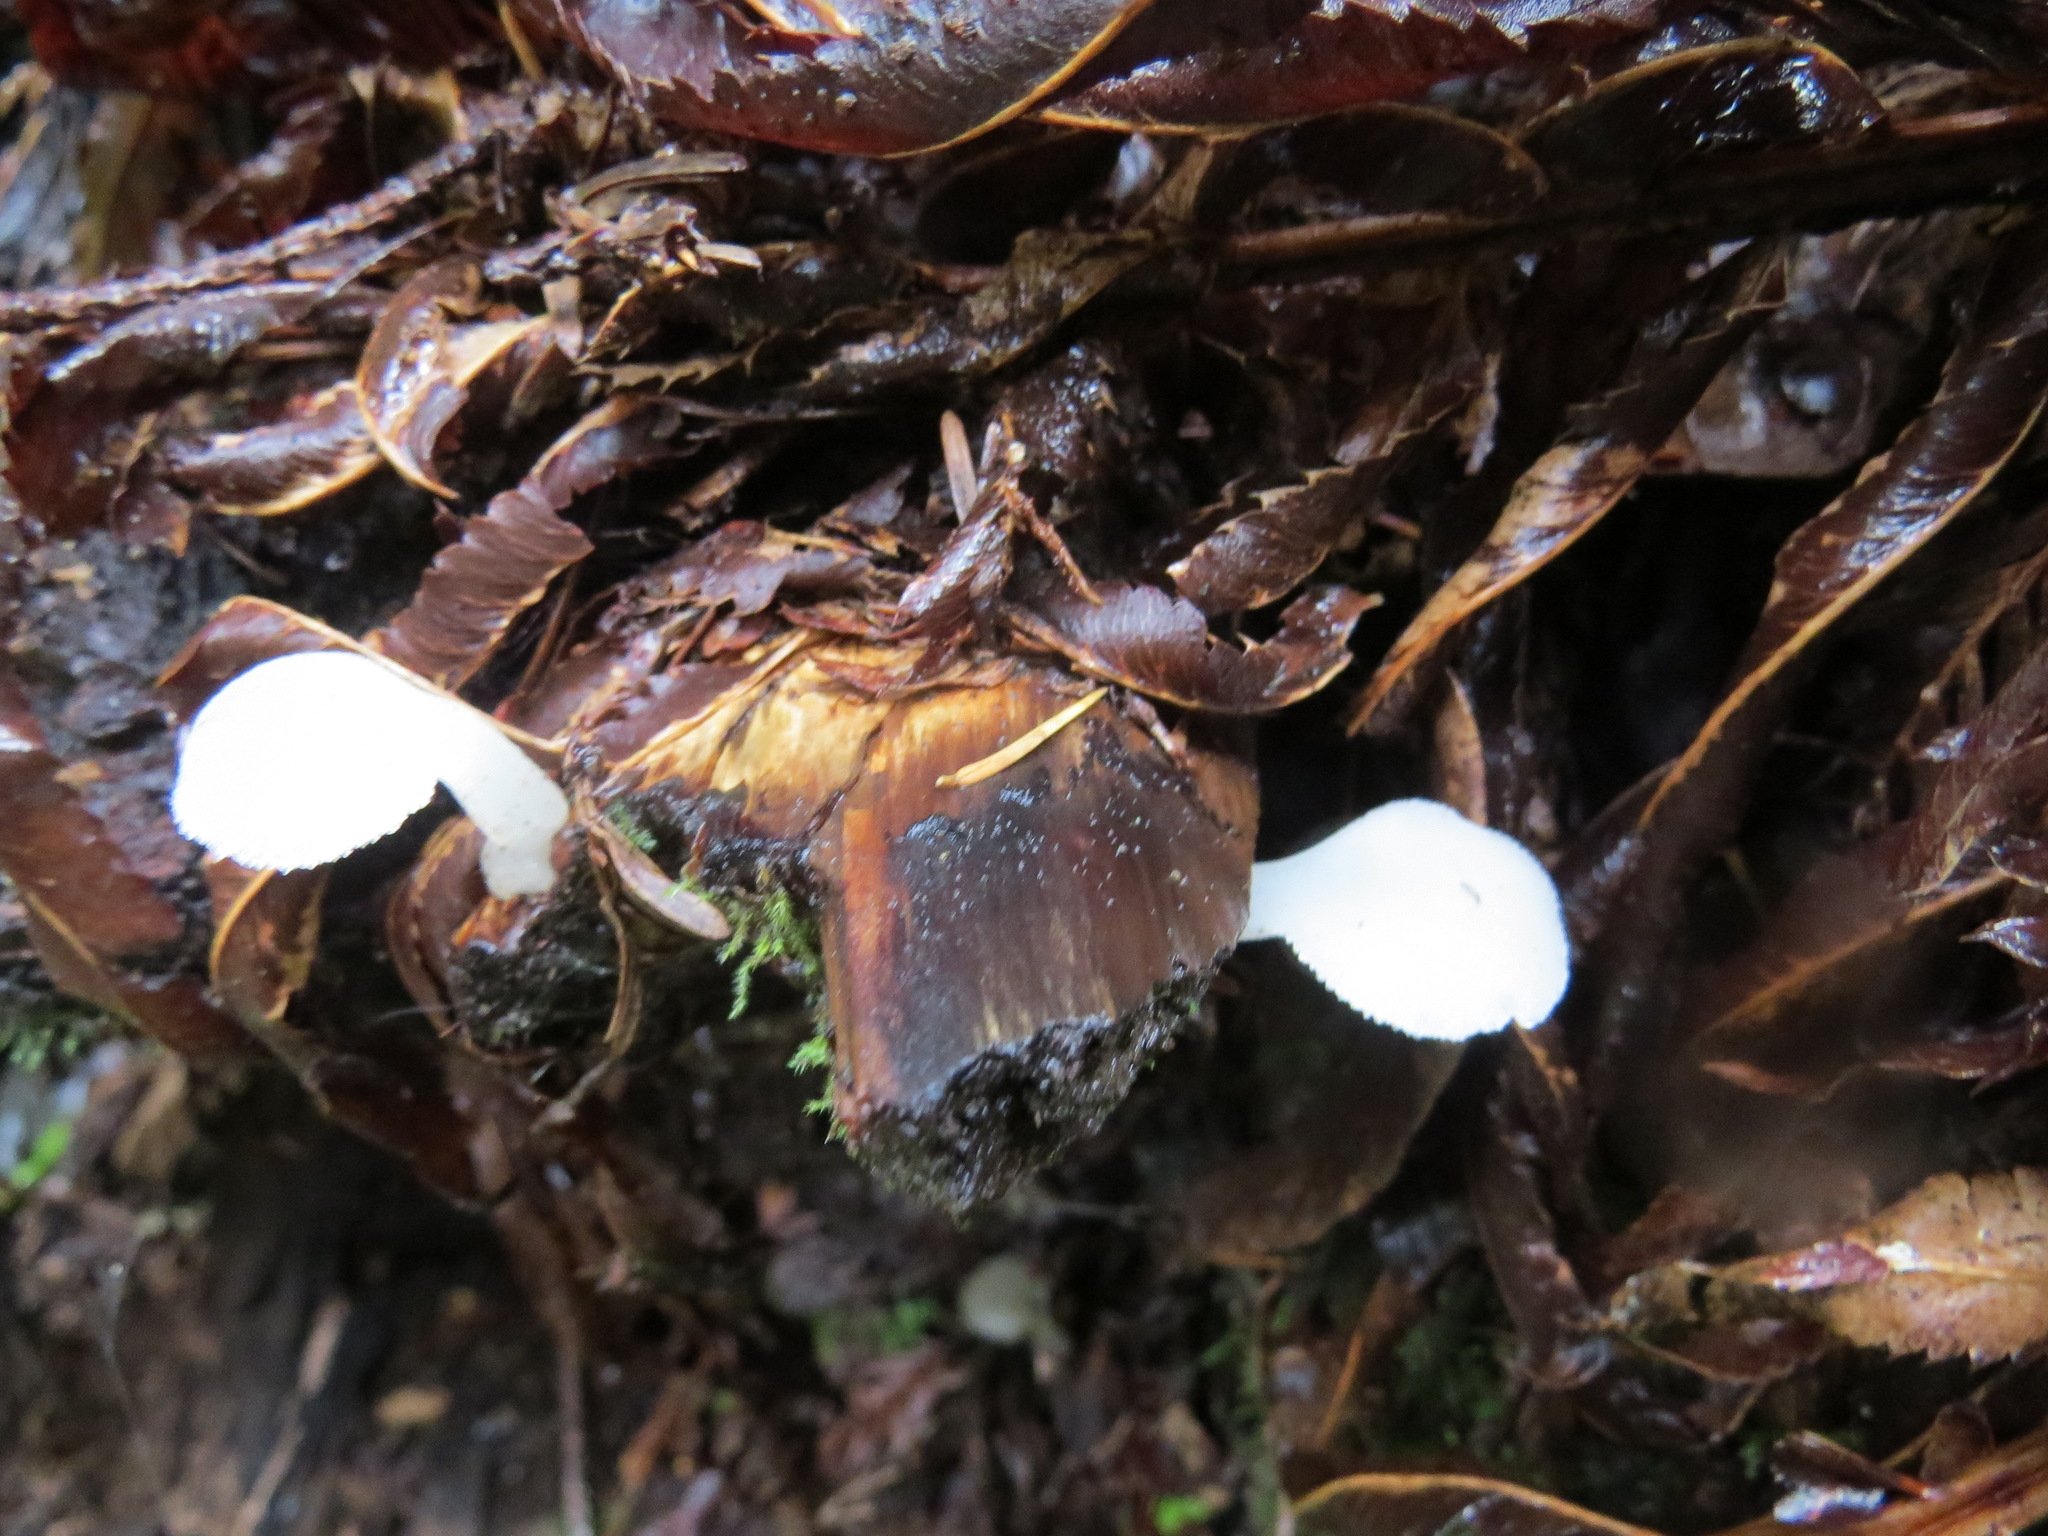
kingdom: Fungi
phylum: Basidiomycota
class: Agaricomycetes
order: Auriculariales
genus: Pseudohydnum
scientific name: Pseudohydnum gelatinosum
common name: Jelly tongue
